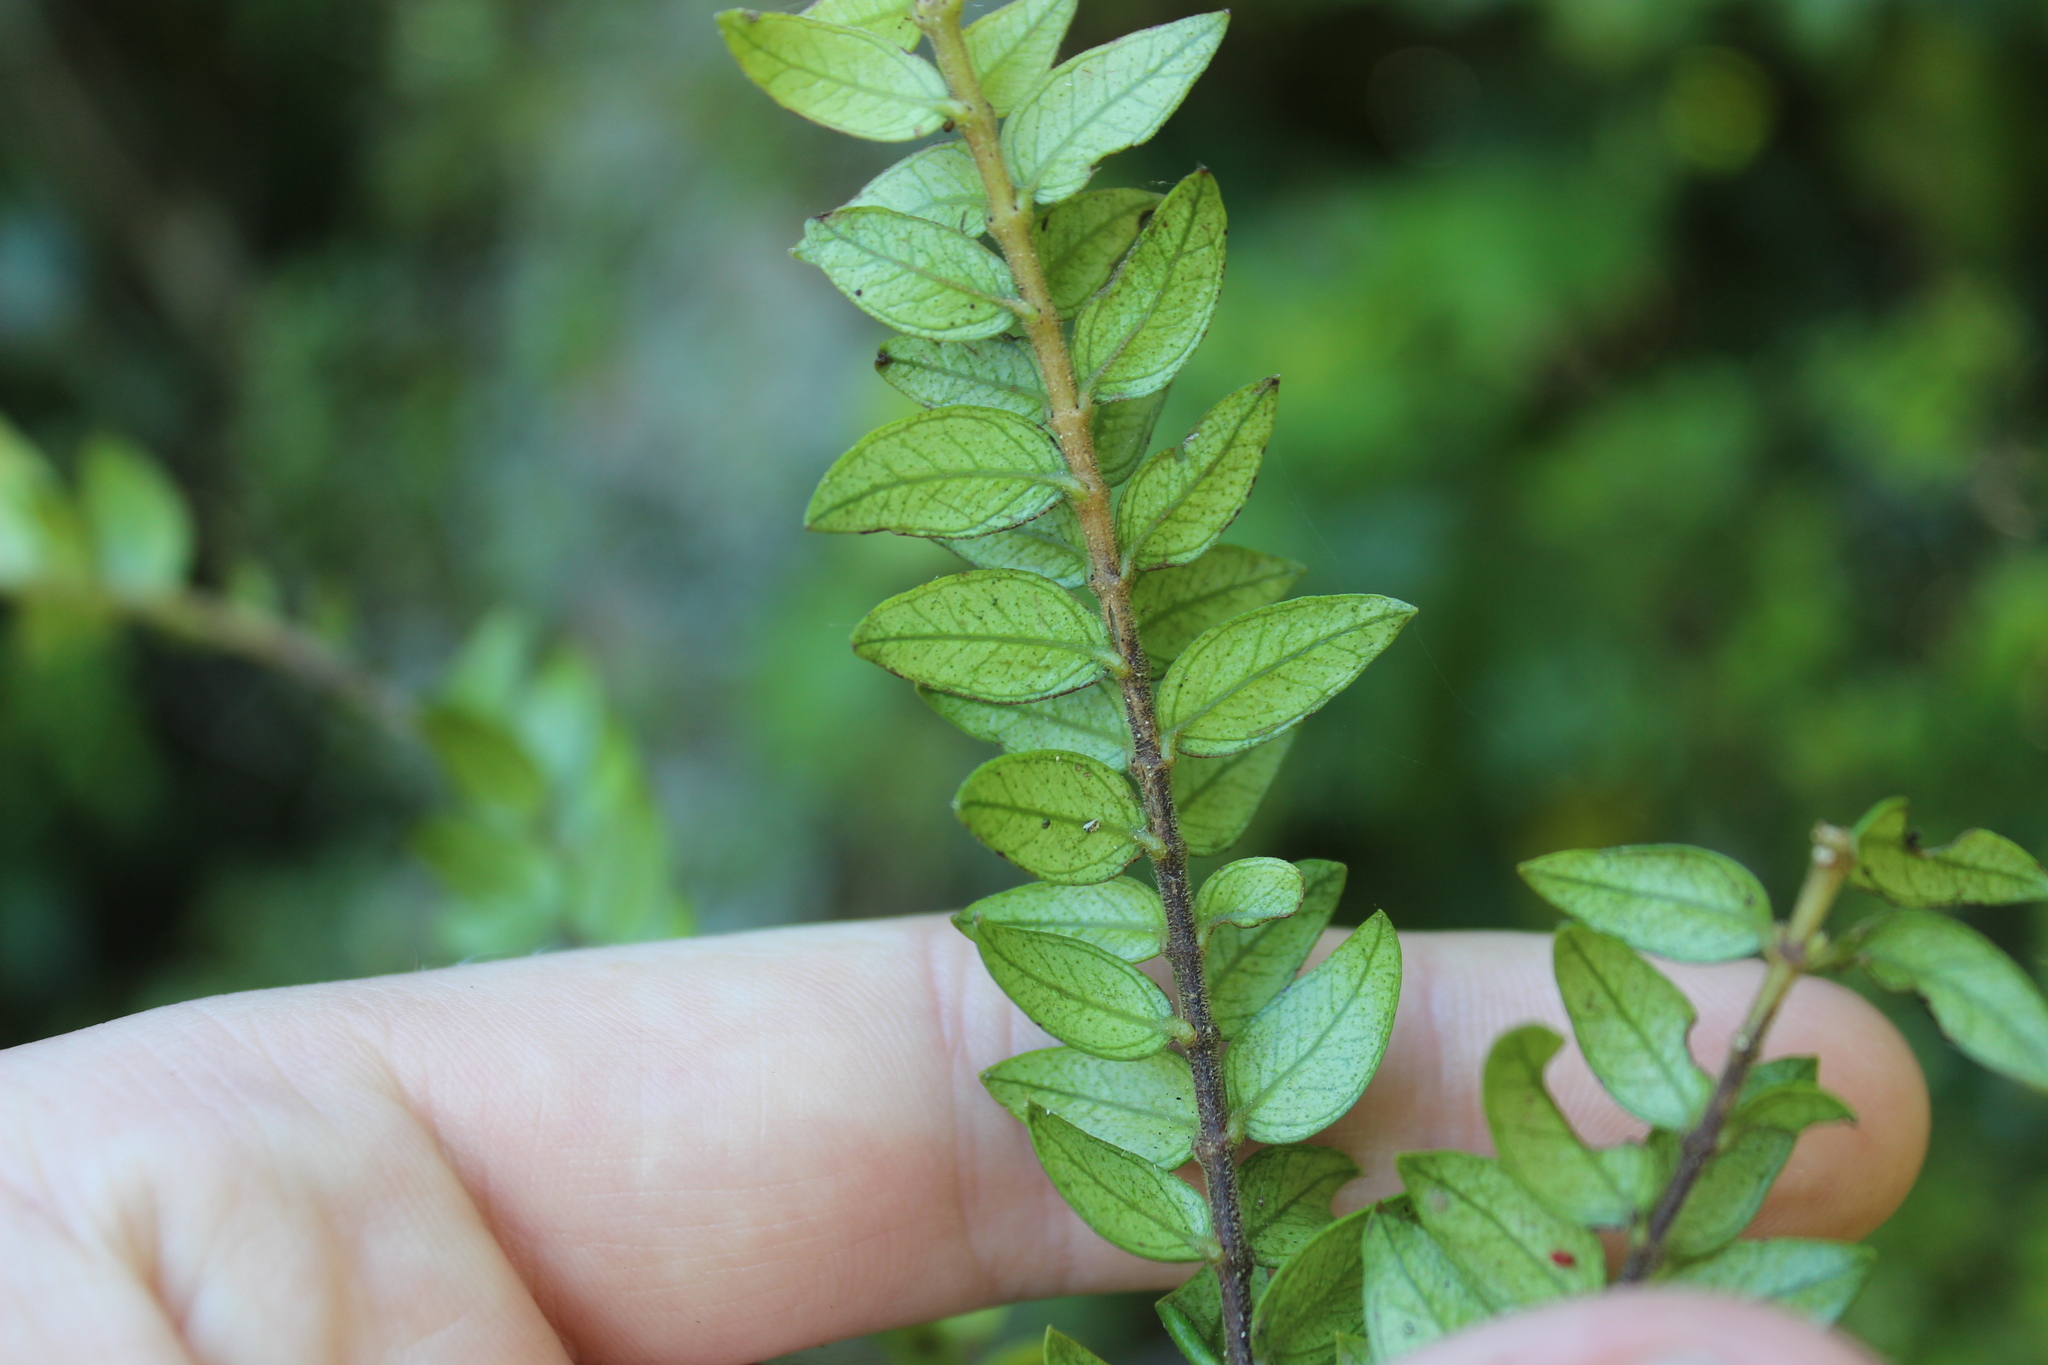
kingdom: Plantae
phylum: Tracheophyta
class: Magnoliopsida
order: Myrtales
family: Myrtaceae
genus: Metrosideros
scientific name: Metrosideros colensoi
